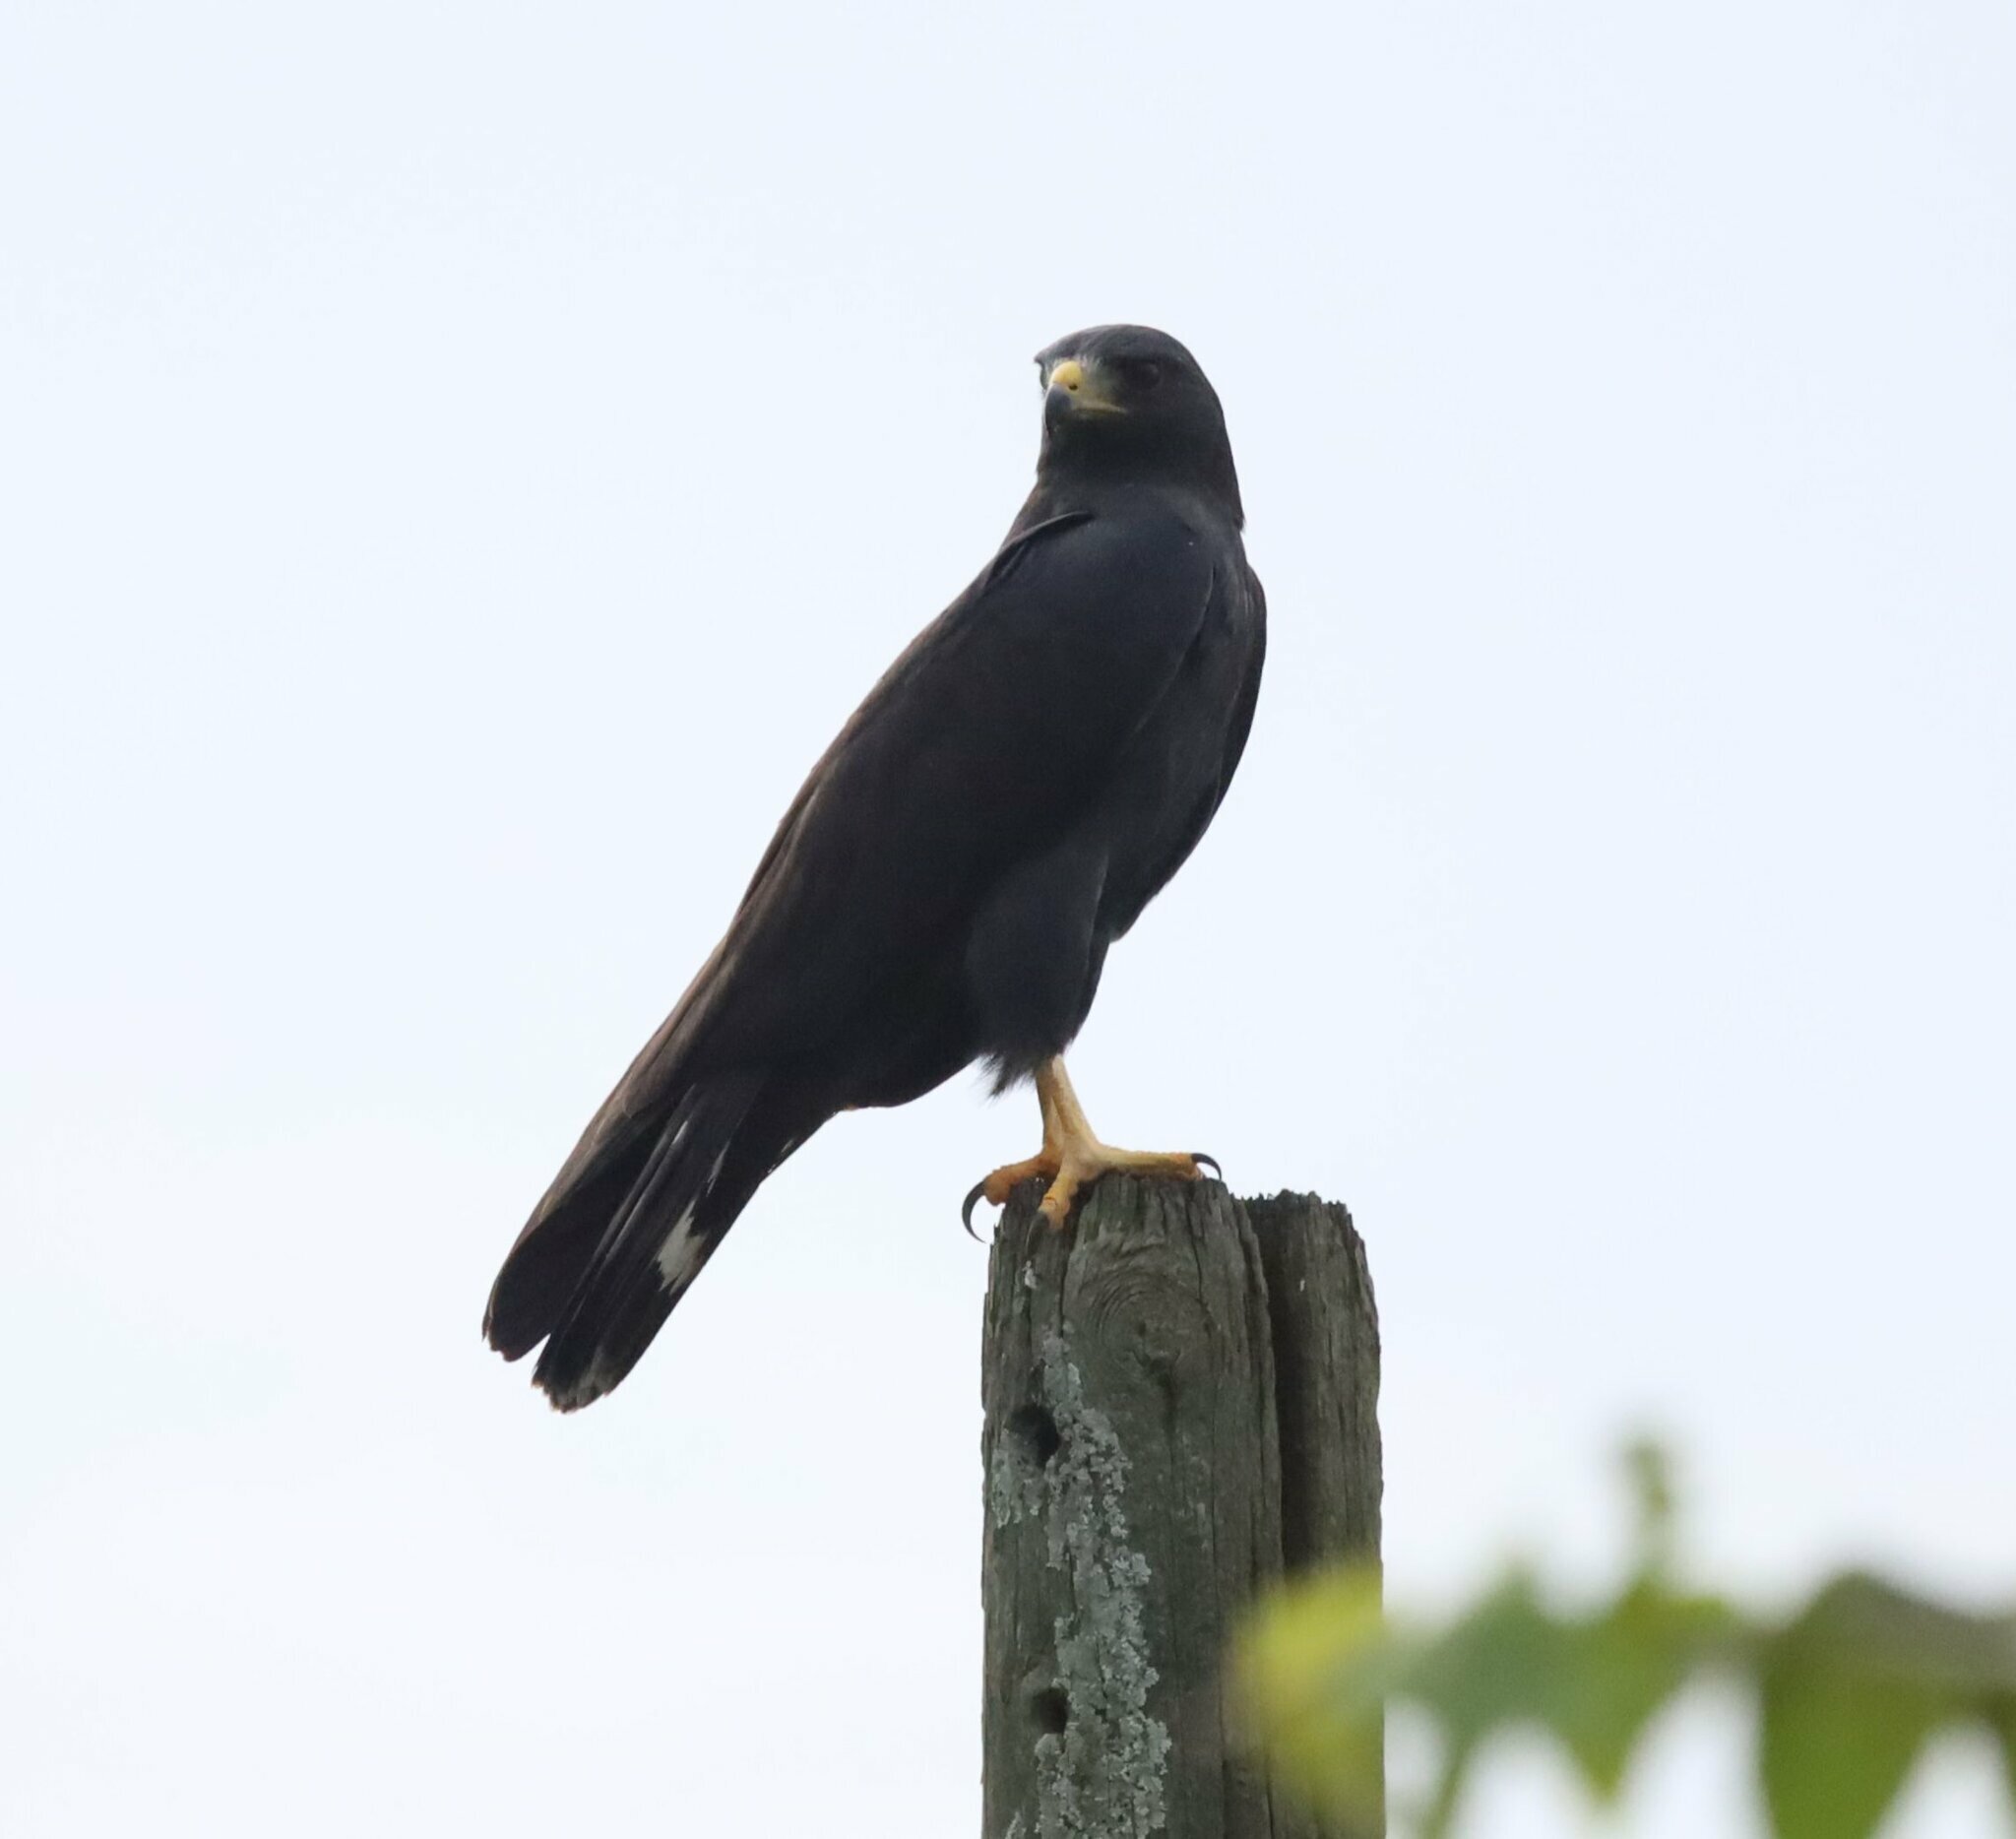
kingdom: Animalia
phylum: Chordata
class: Aves
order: Accipitriformes
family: Accipitridae
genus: Buteo
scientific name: Buteo albonotatus
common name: Zone-tailed hawk
